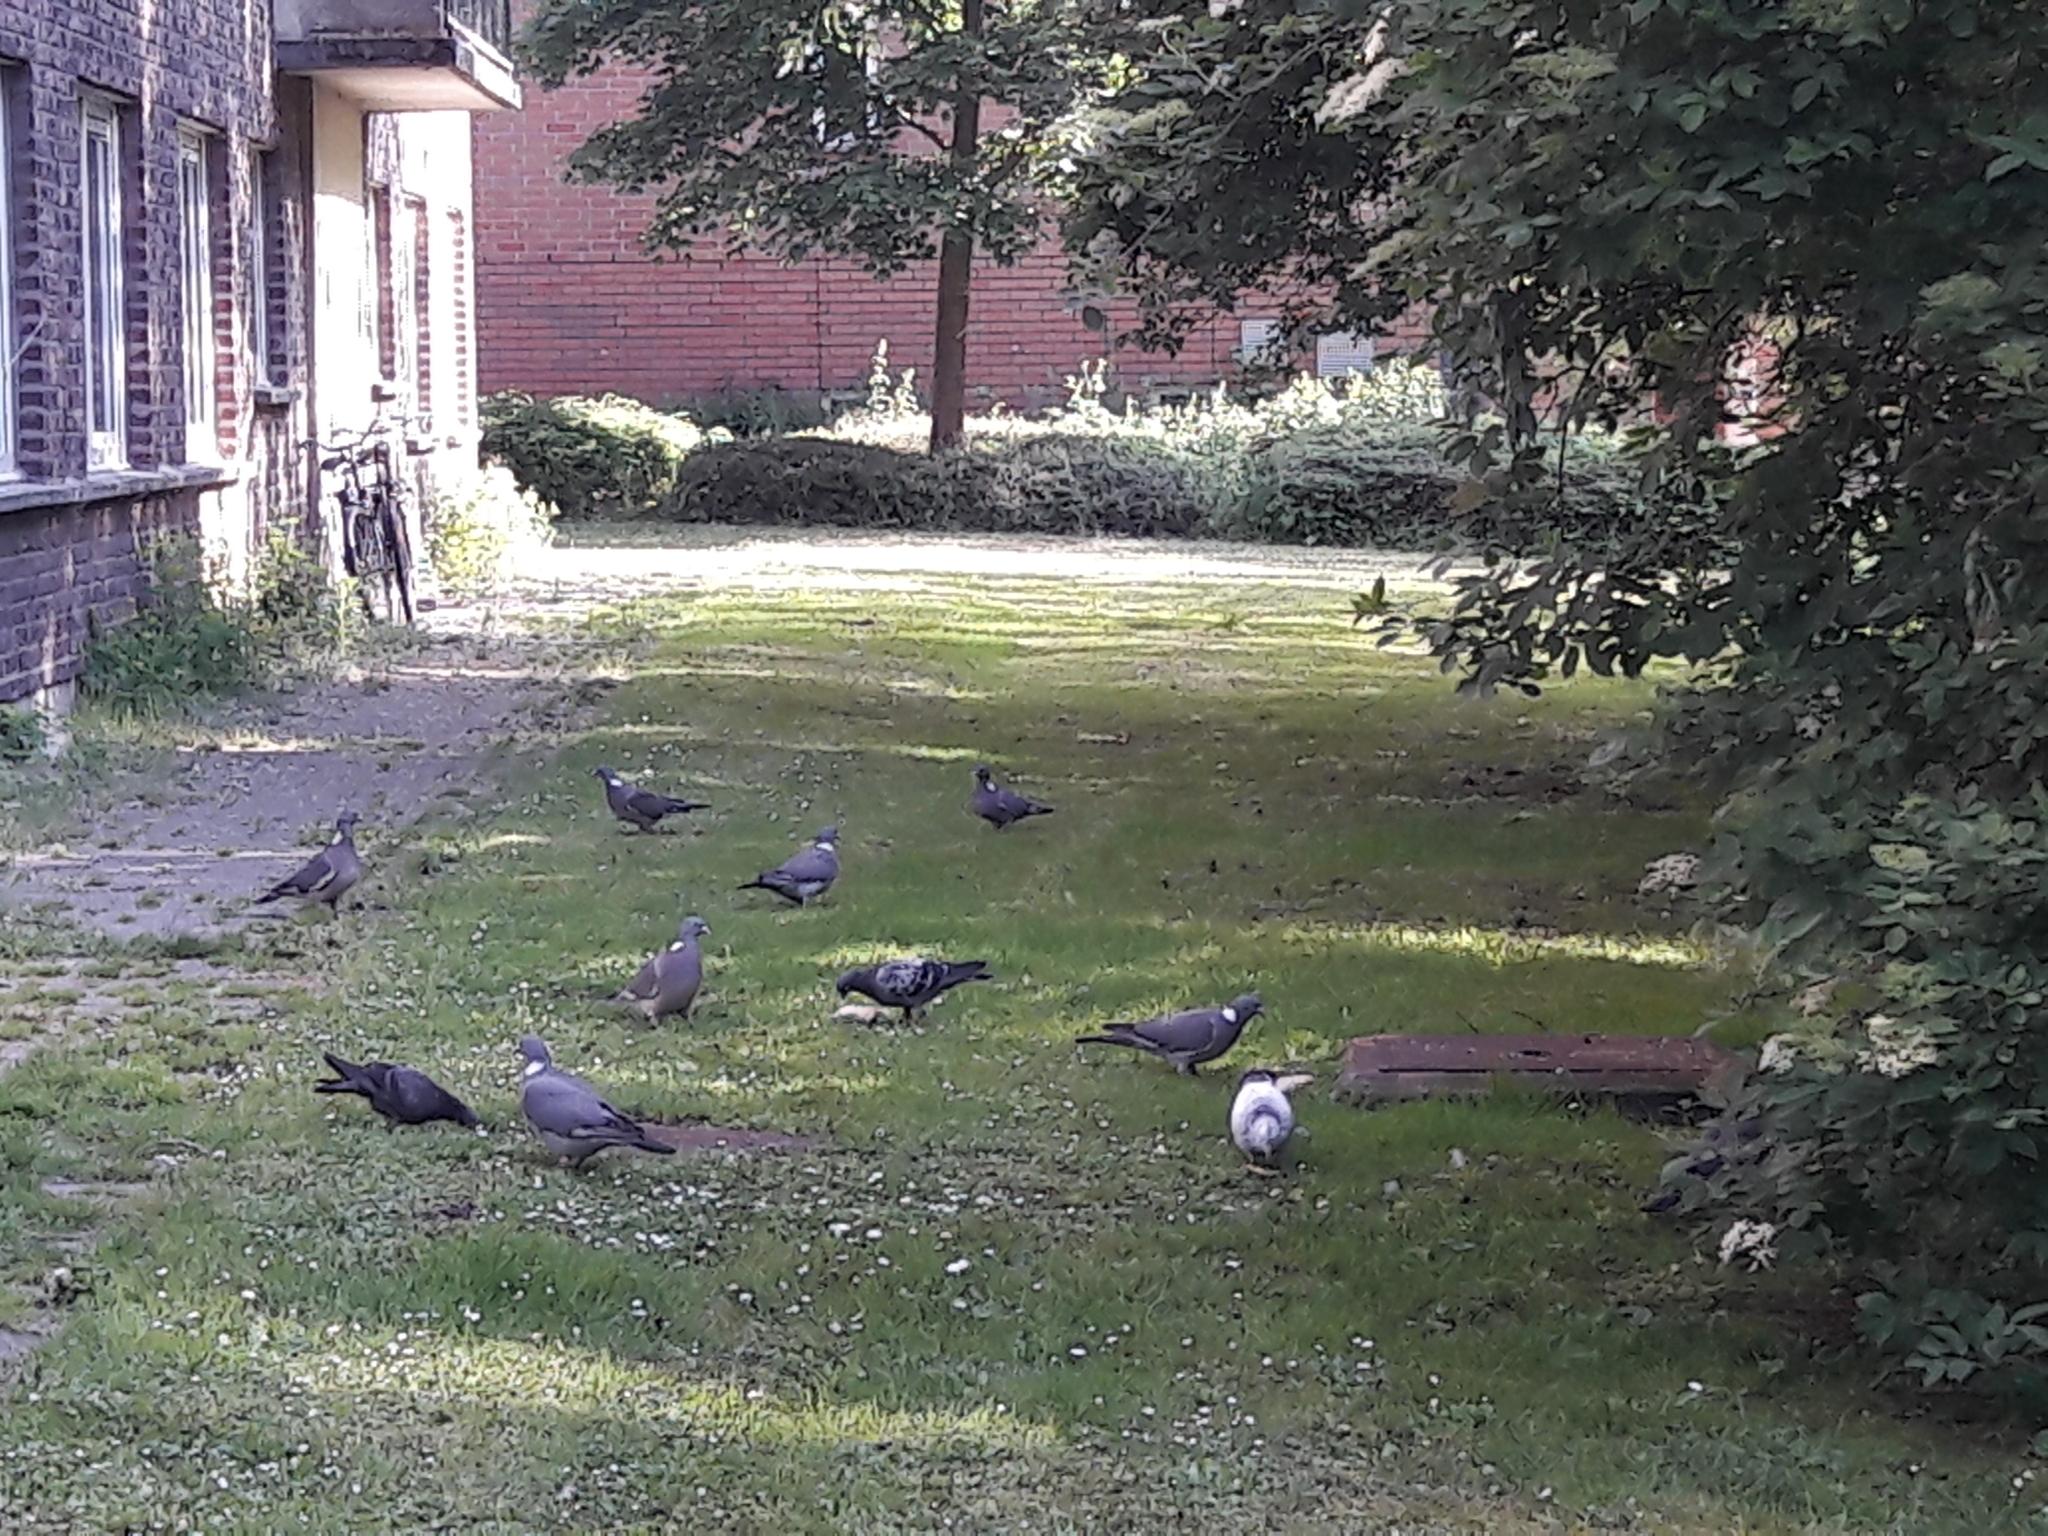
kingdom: Animalia
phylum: Chordata
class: Aves
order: Columbiformes
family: Columbidae
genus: Columba
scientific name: Columba palumbus
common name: Common wood pigeon
